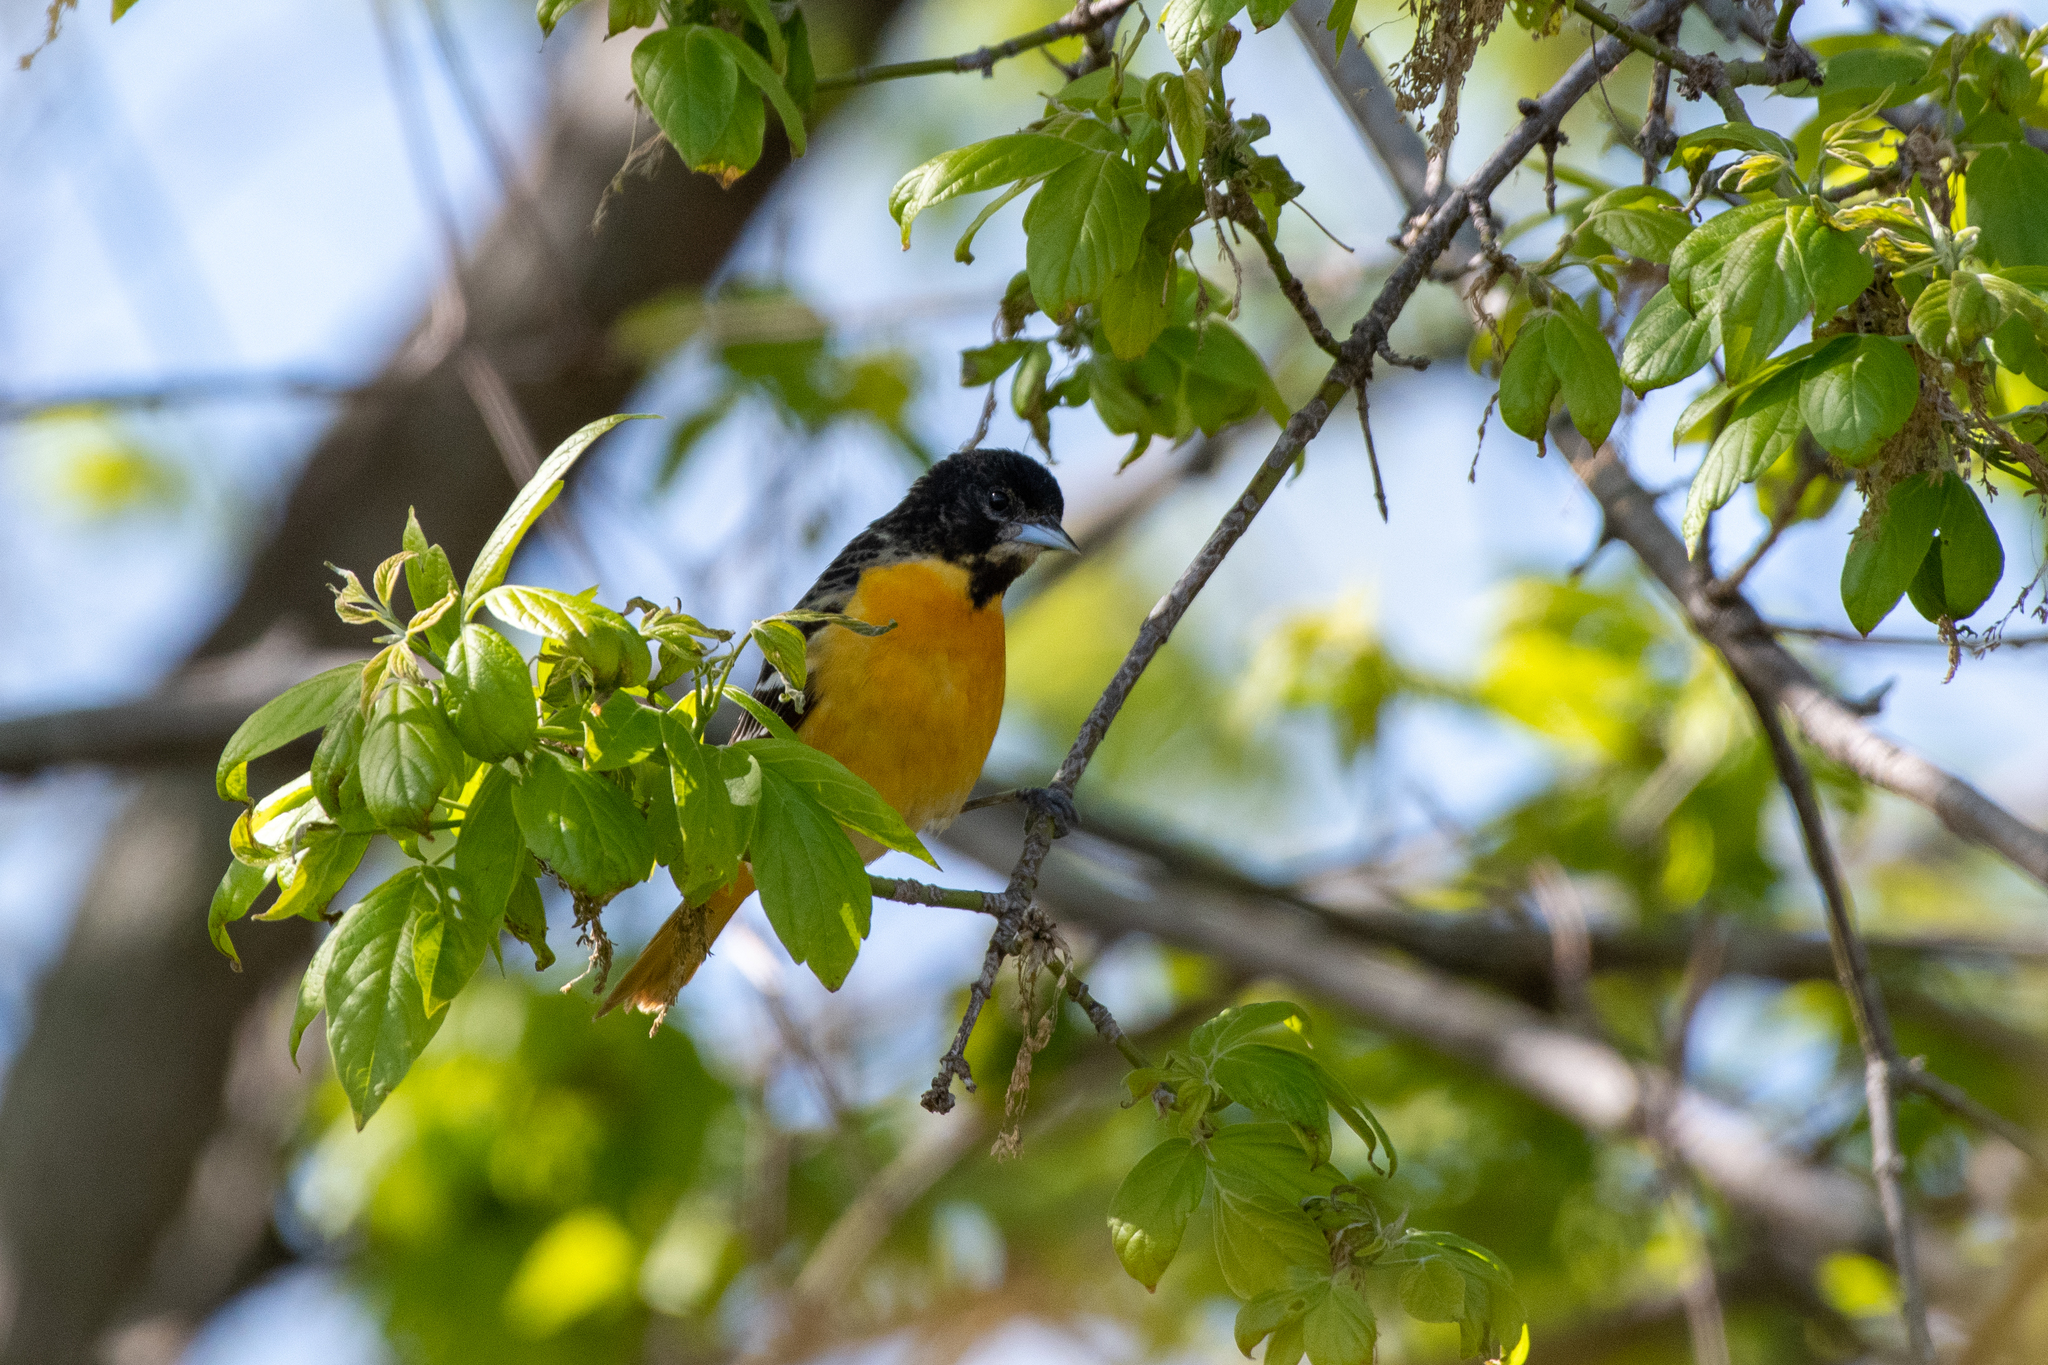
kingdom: Animalia
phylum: Chordata
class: Aves
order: Passeriformes
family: Icteridae
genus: Icterus
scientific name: Icterus galbula
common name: Baltimore oriole
